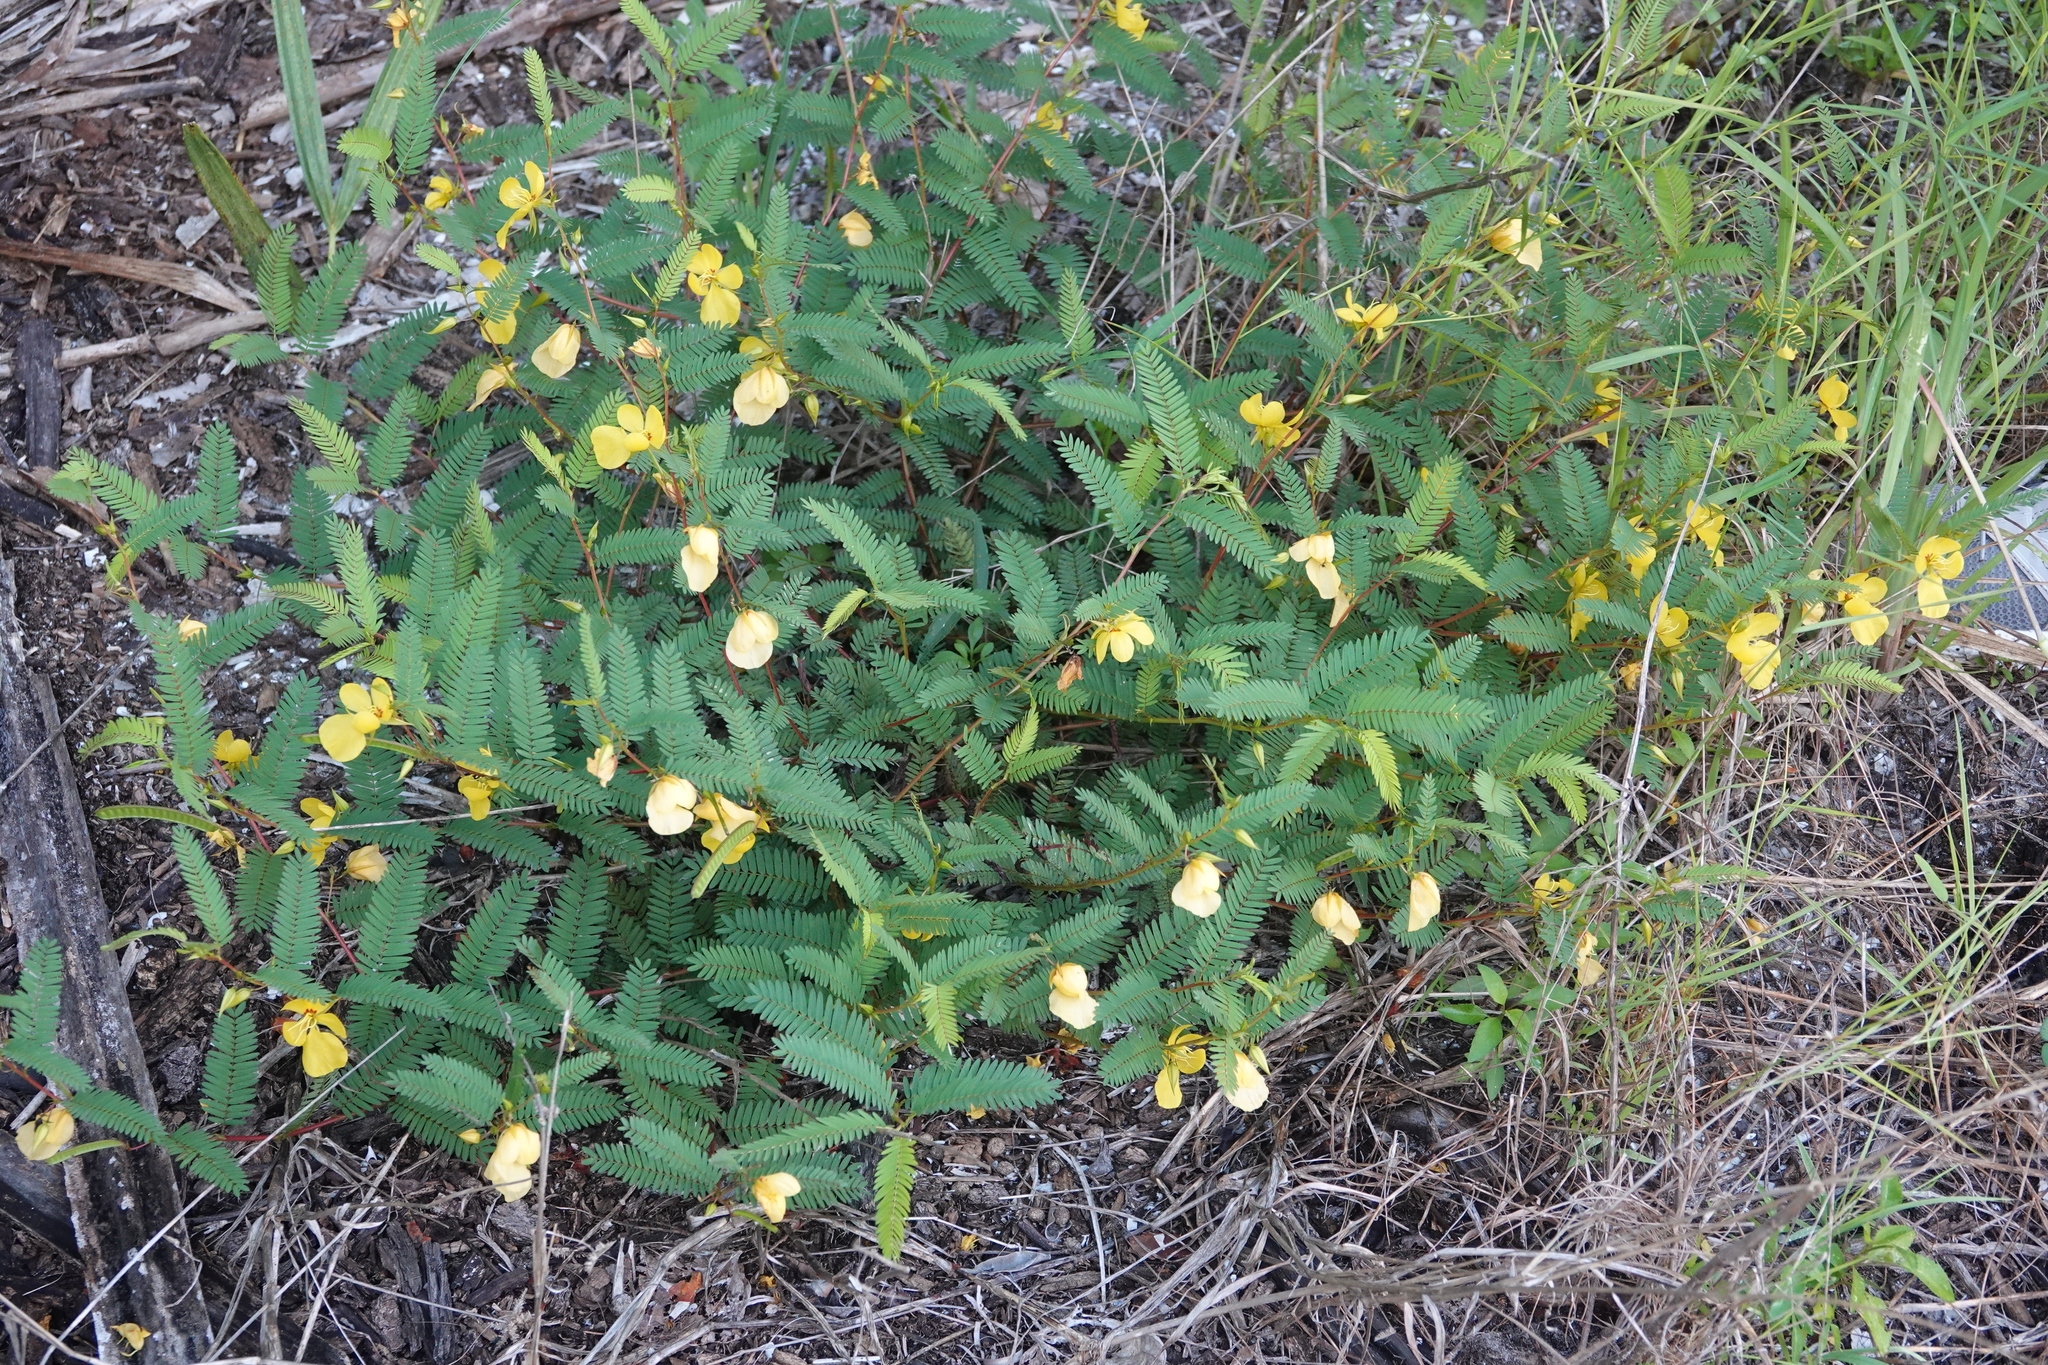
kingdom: Plantae
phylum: Tracheophyta
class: Magnoliopsida
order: Fabales
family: Fabaceae
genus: Chamaecrista
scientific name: Chamaecrista fasciculata
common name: Golden cassia
